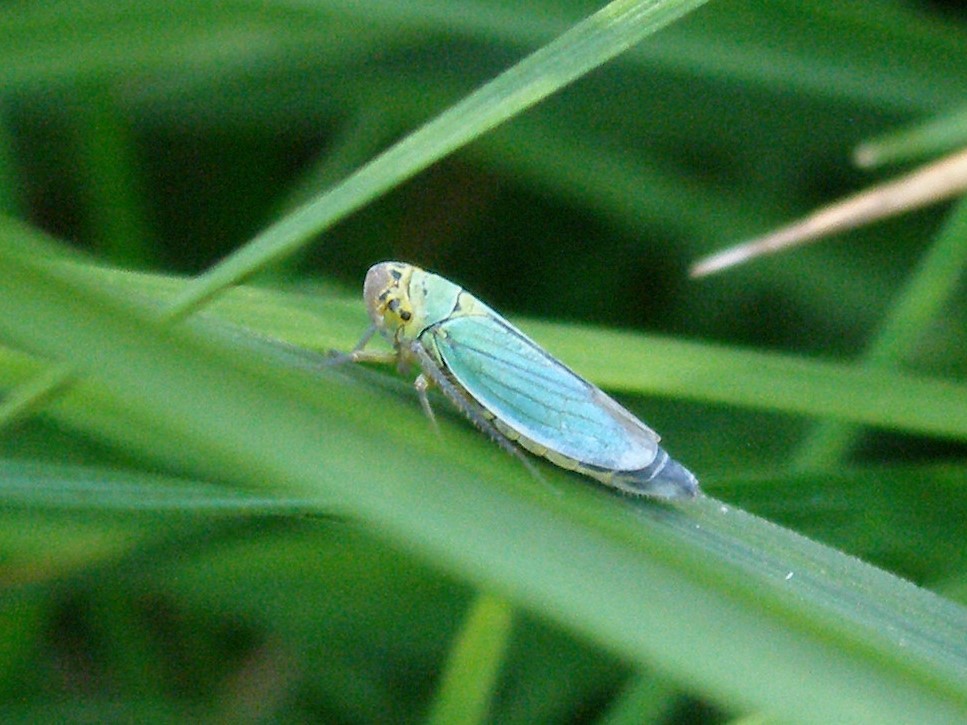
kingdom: Animalia
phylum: Arthropoda
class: Insecta
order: Hemiptera
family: Cicadellidae
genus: Cicadella
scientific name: Cicadella viridis
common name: Leafhopper
